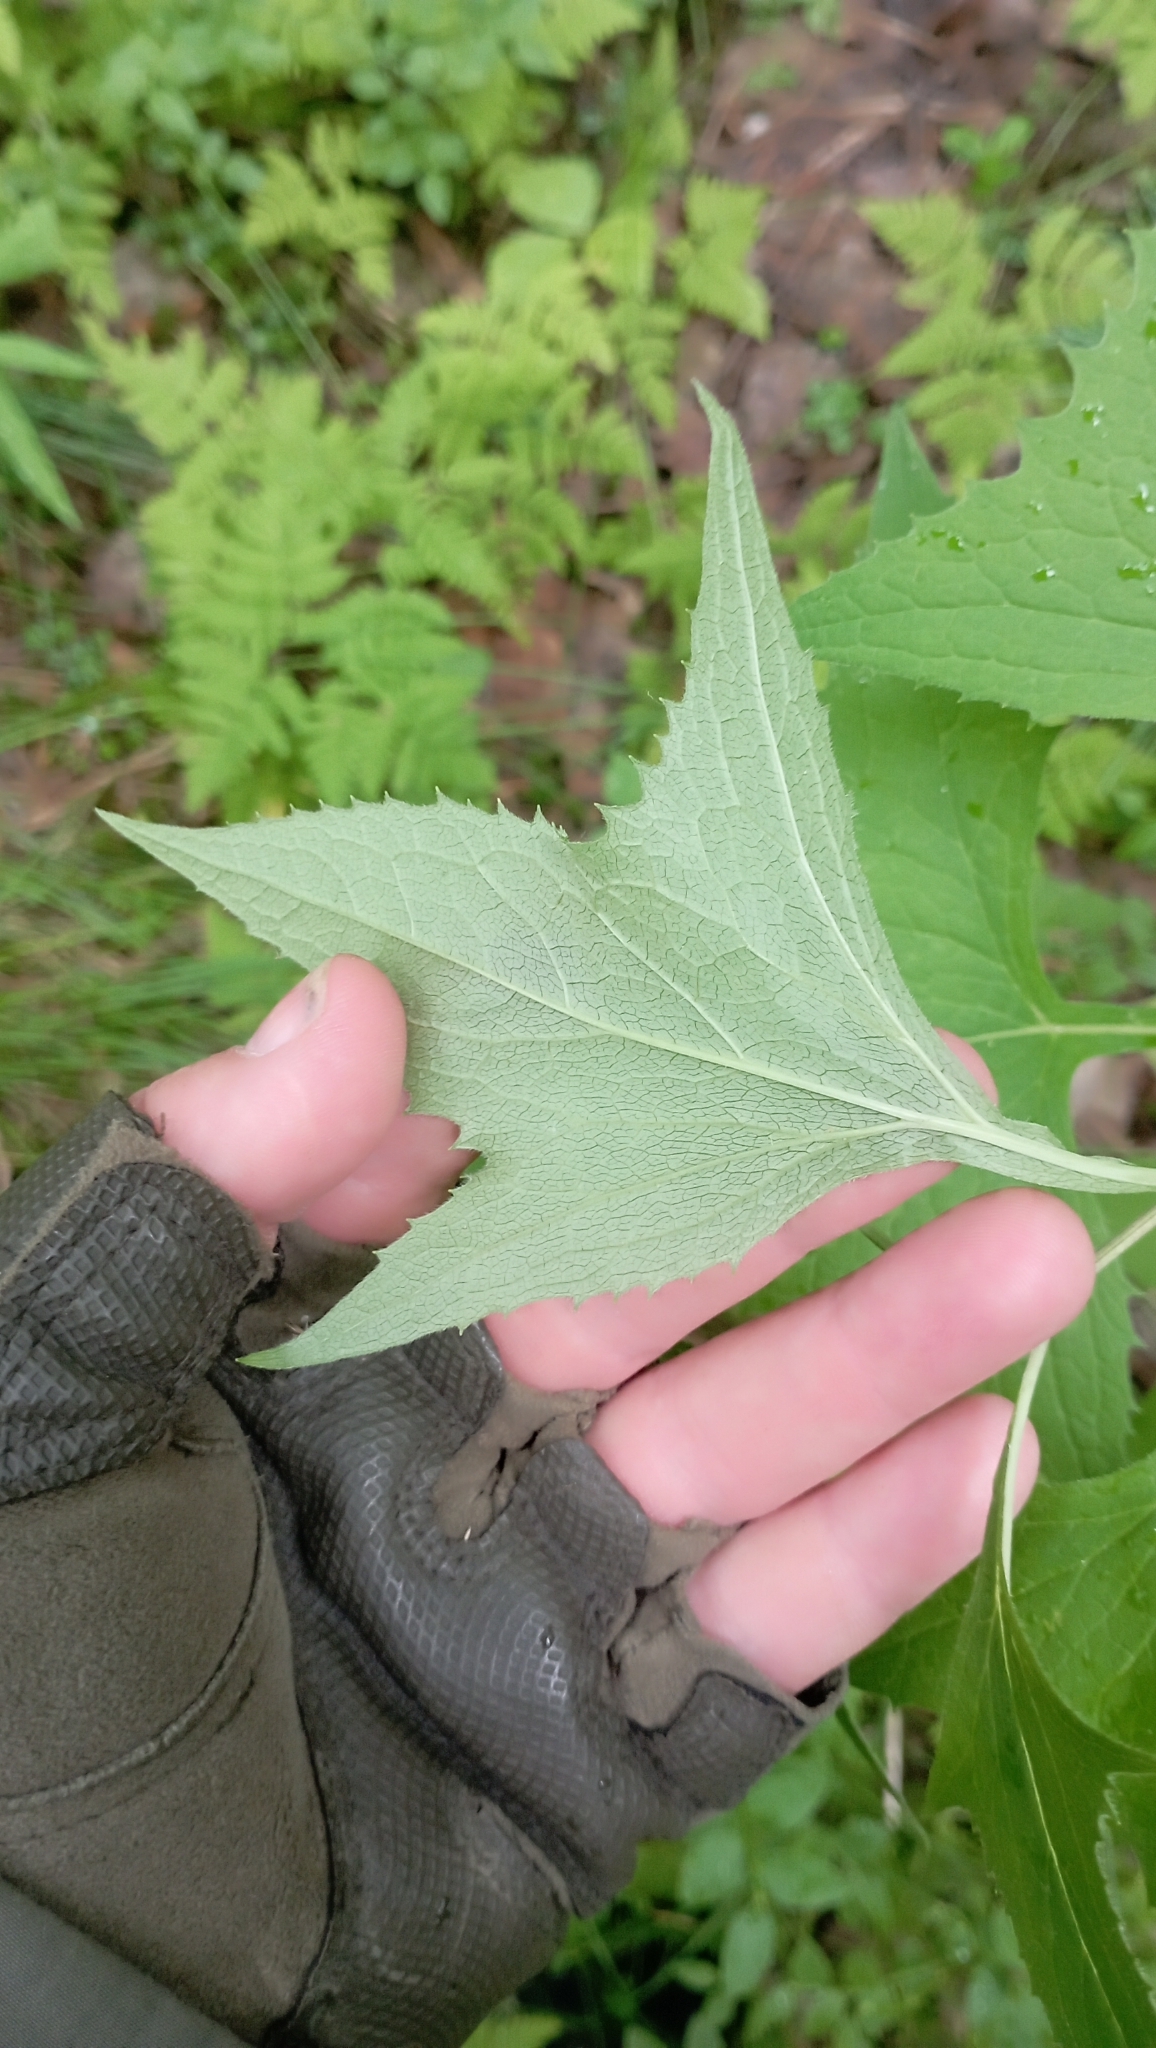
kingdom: Plantae
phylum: Tracheophyta
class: Magnoliopsida
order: Asterales
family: Asteraceae
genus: Parasenecio
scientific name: Parasenecio hastatus
